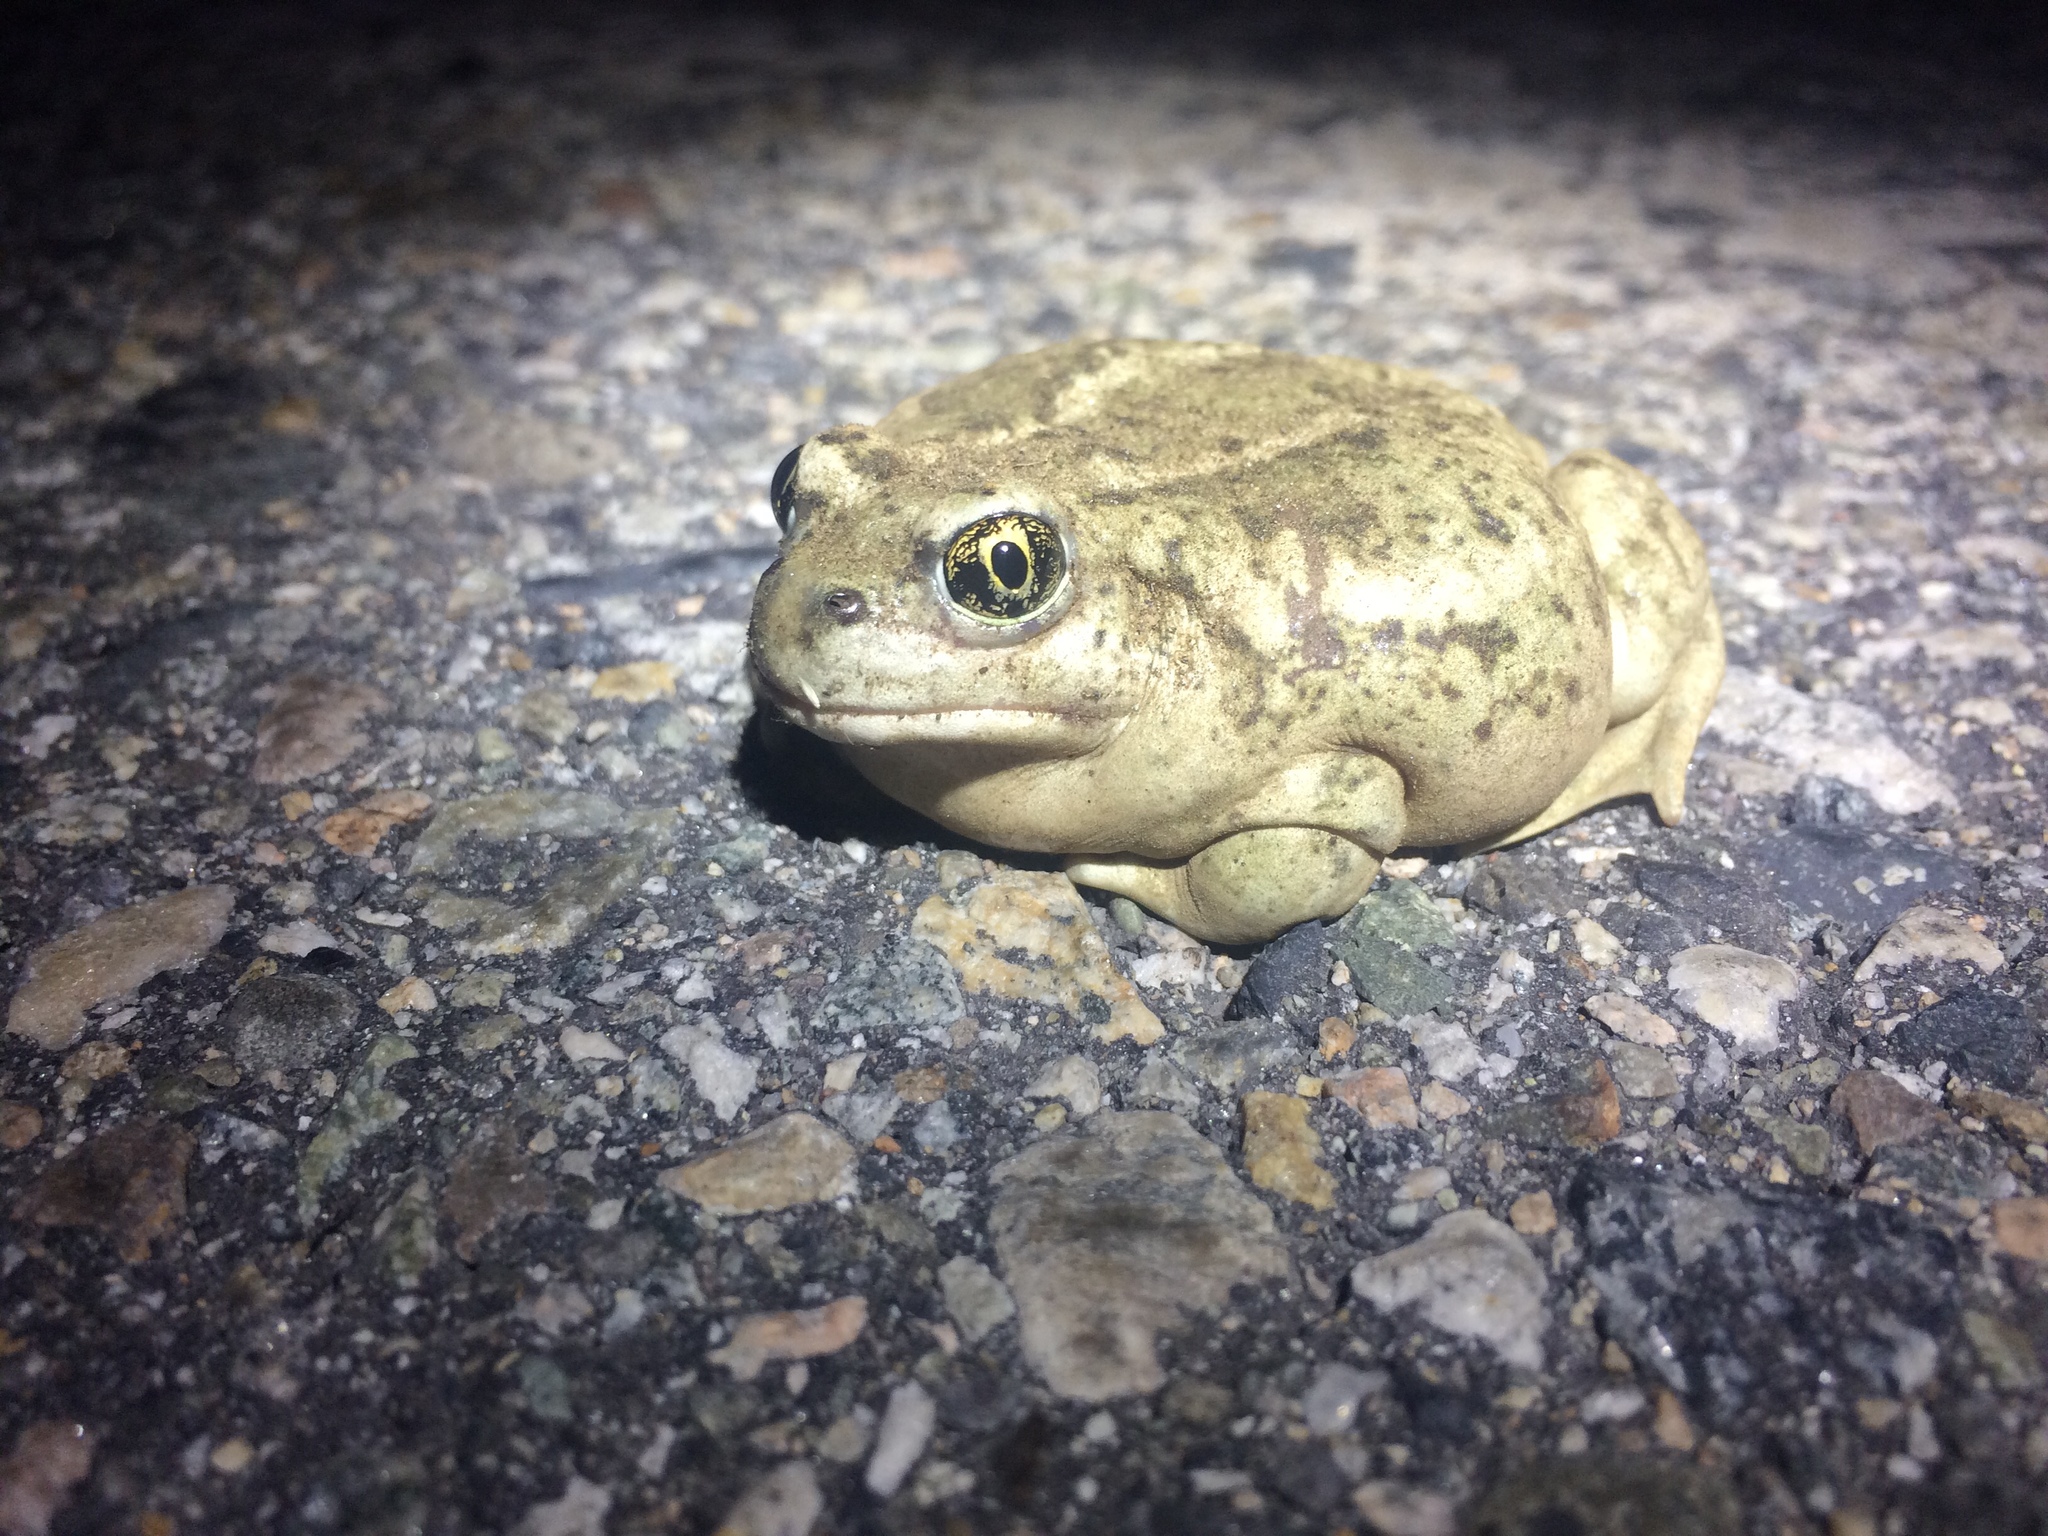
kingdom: Animalia
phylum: Chordata
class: Amphibia
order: Anura
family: Scaphiopodidae
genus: Spea
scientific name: Spea intermontana
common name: Great basin spadefoot
